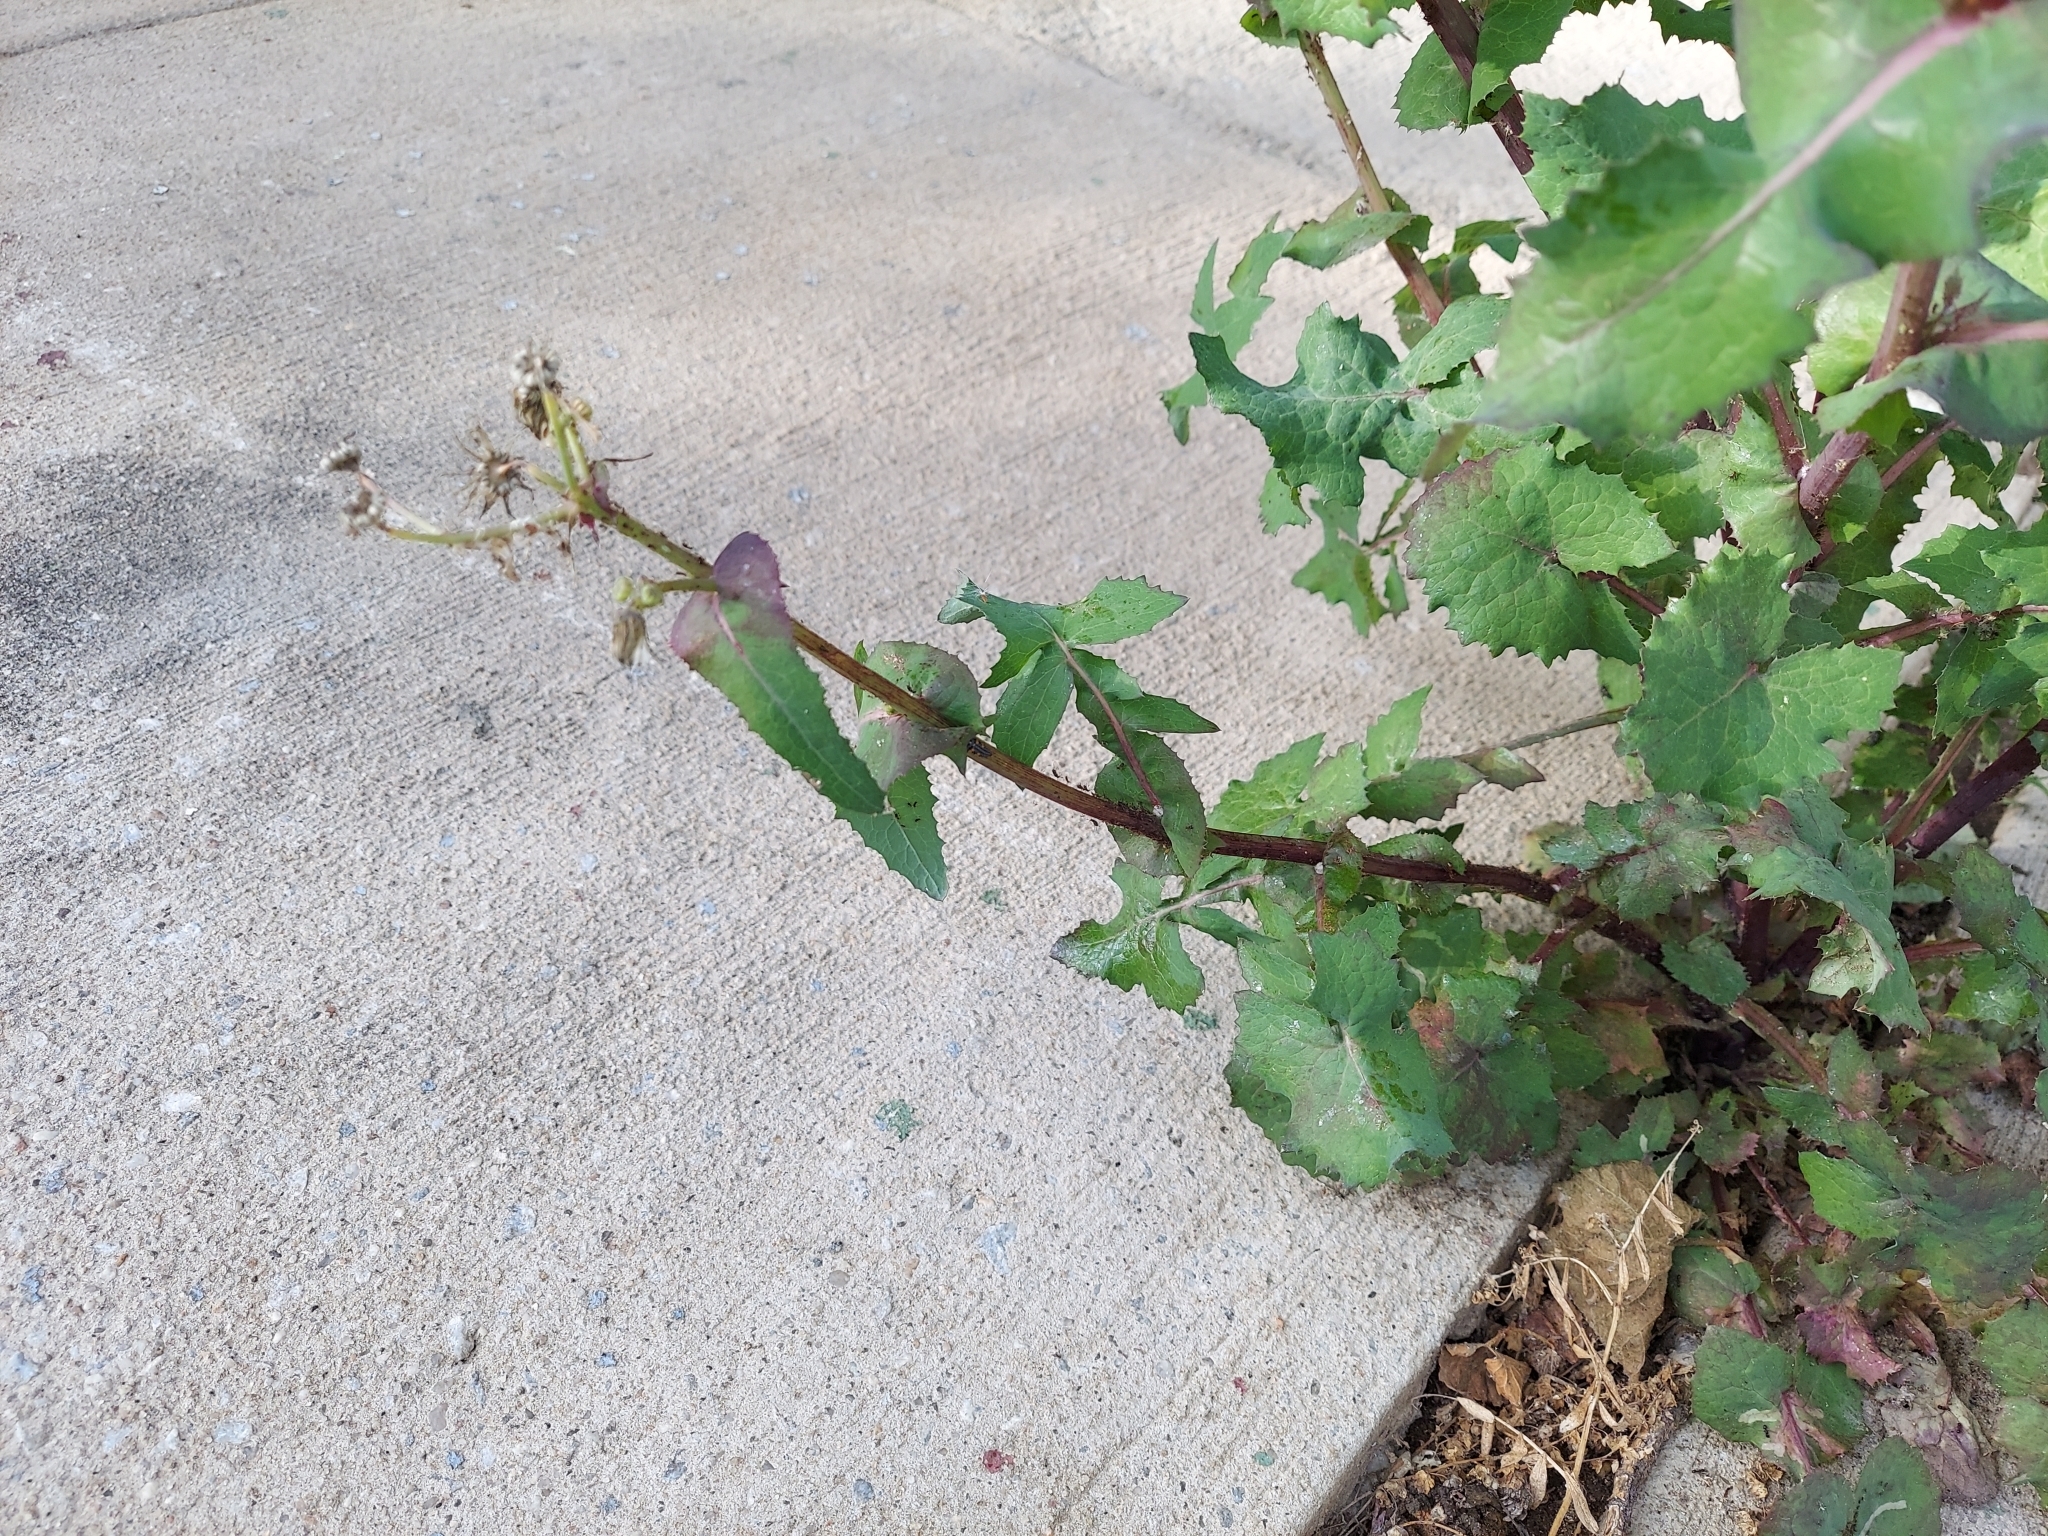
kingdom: Plantae
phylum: Tracheophyta
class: Magnoliopsida
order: Asterales
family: Asteraceae
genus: Sonchus
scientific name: Sonchus oleraceus
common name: Common sowthistle
